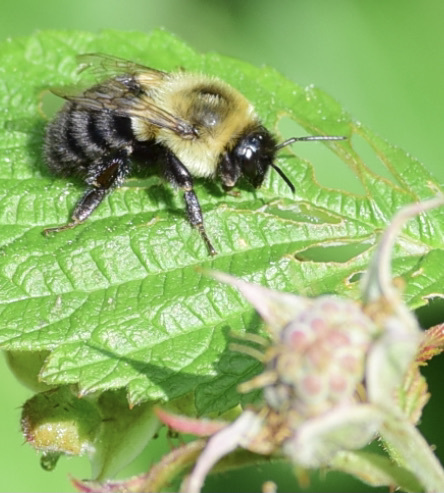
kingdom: Animalia
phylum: Arthropoda
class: Insecta
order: Hymenoptera
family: Apidae
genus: Bombus
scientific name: Bombus impatiens
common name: Common eastern bumble bee
